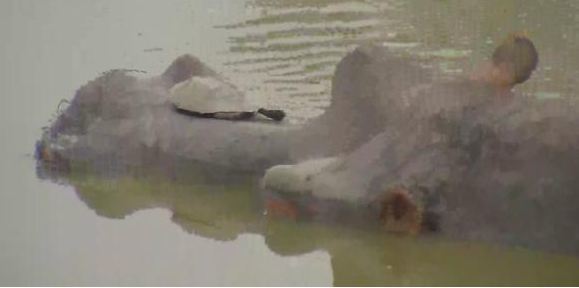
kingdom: Animalia
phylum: Chordata
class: Mammalia
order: Artiodactyla
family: Hippopotamidae
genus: Hippopotamus
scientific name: Hippopotamus amphibius
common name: Common hippopotamus
